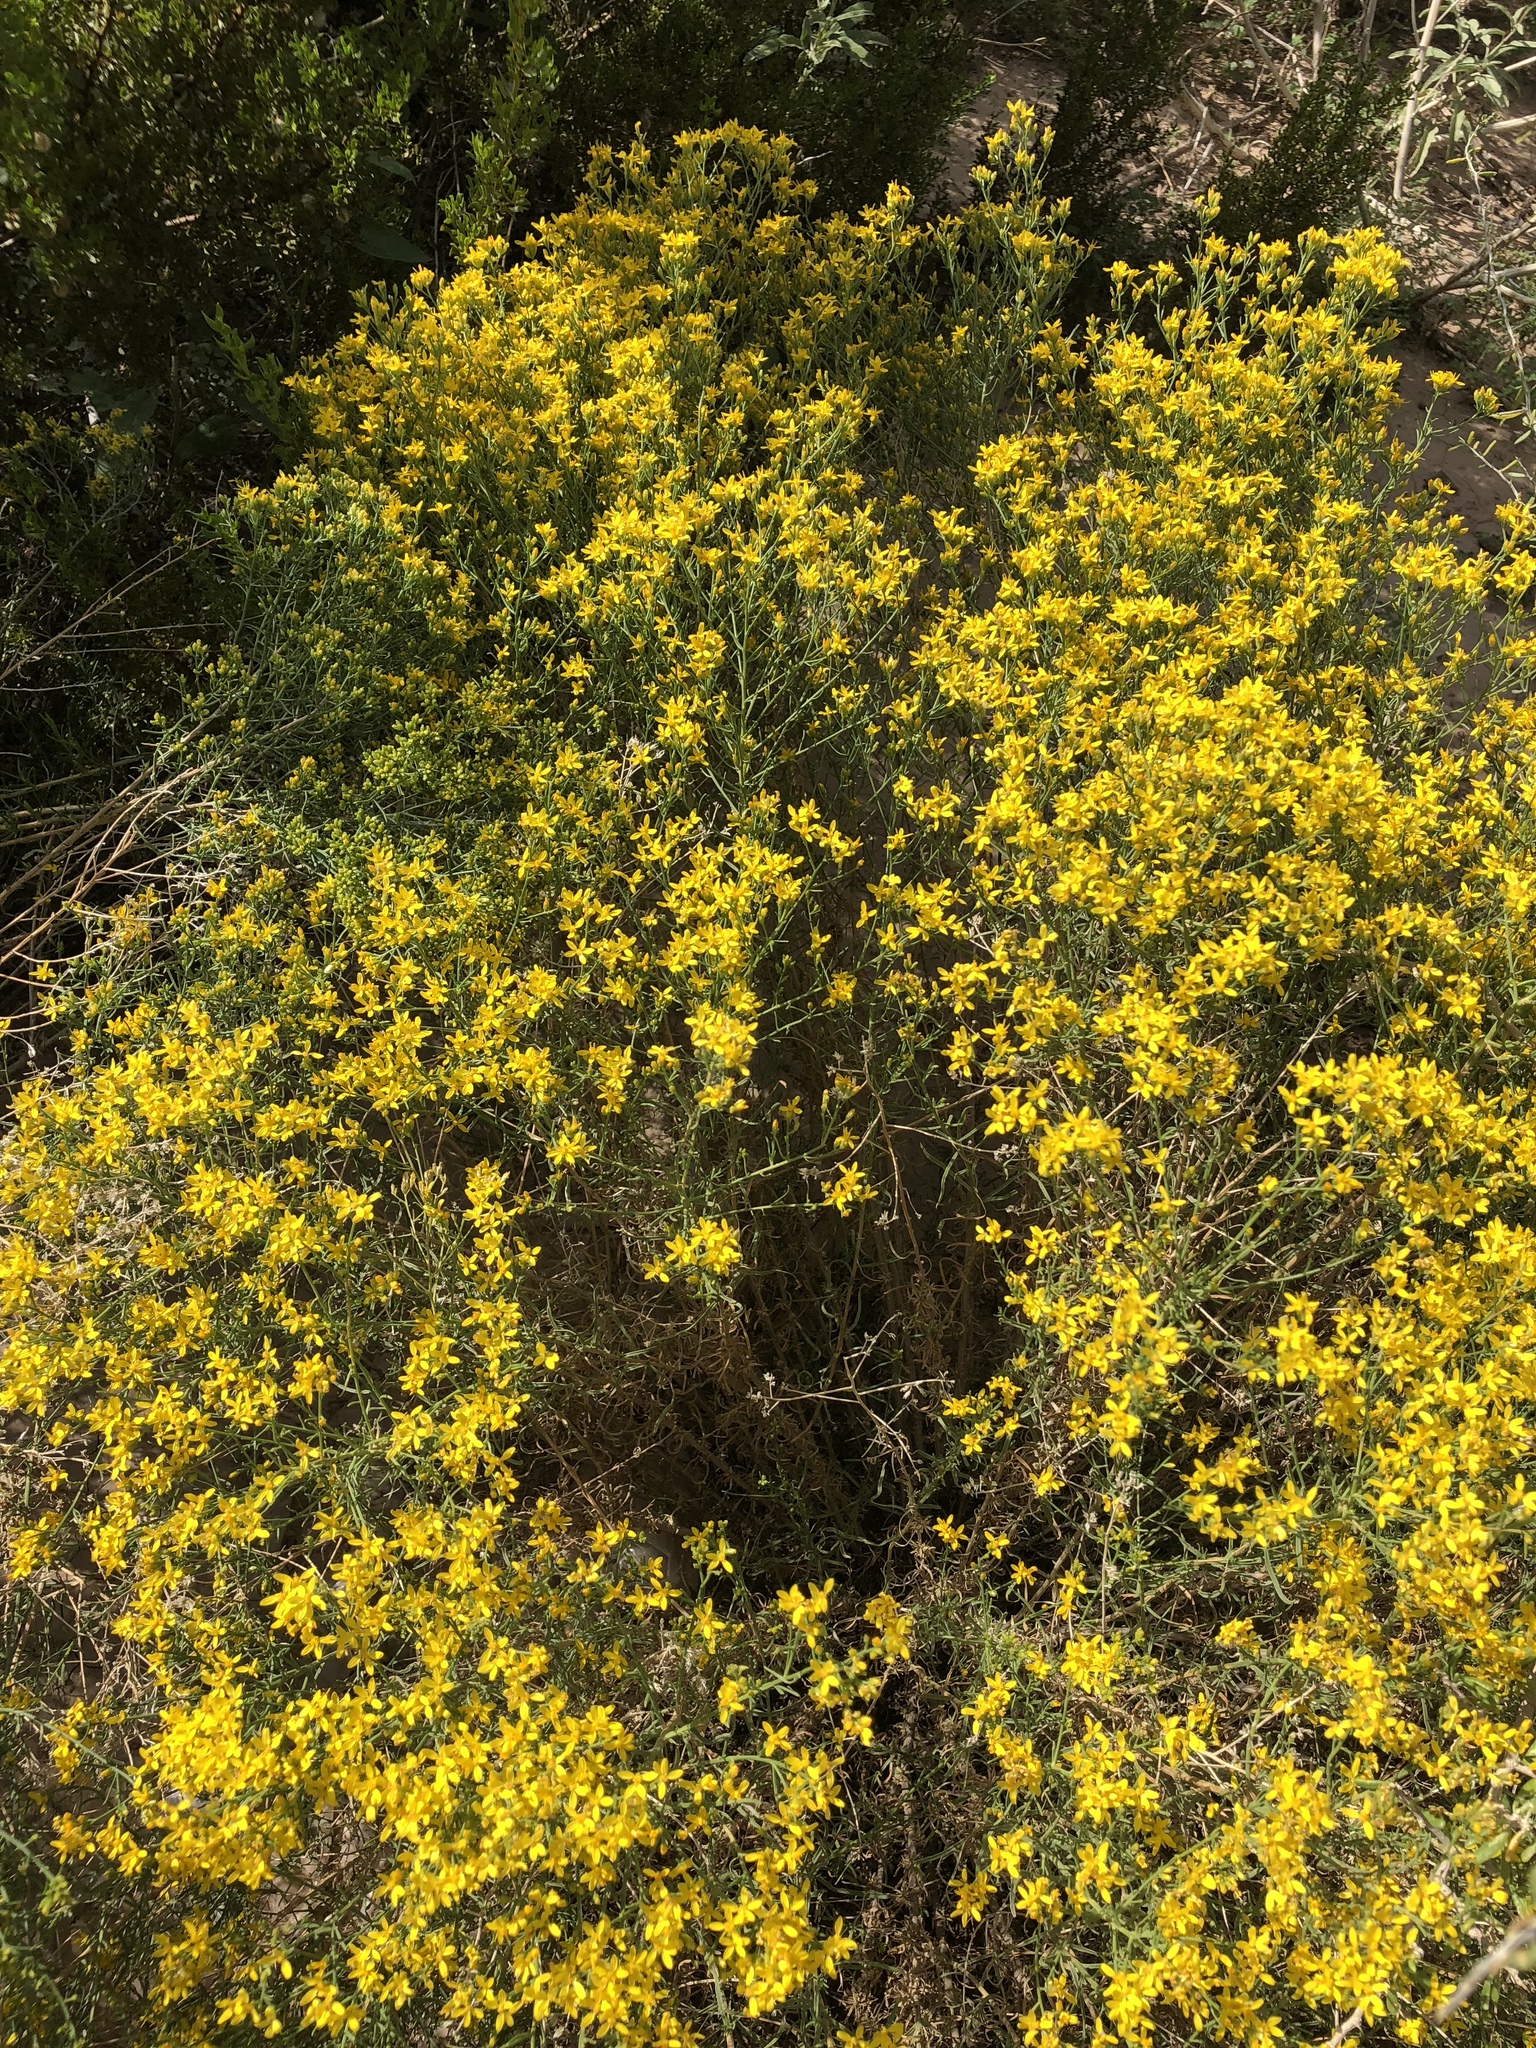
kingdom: Plantae
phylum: Tracheophyta
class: Magnoliopsida
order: Asterales
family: Asteraceae
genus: Gutierrezia
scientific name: Gutierrezia sarothrae
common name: Broom snakeweed
